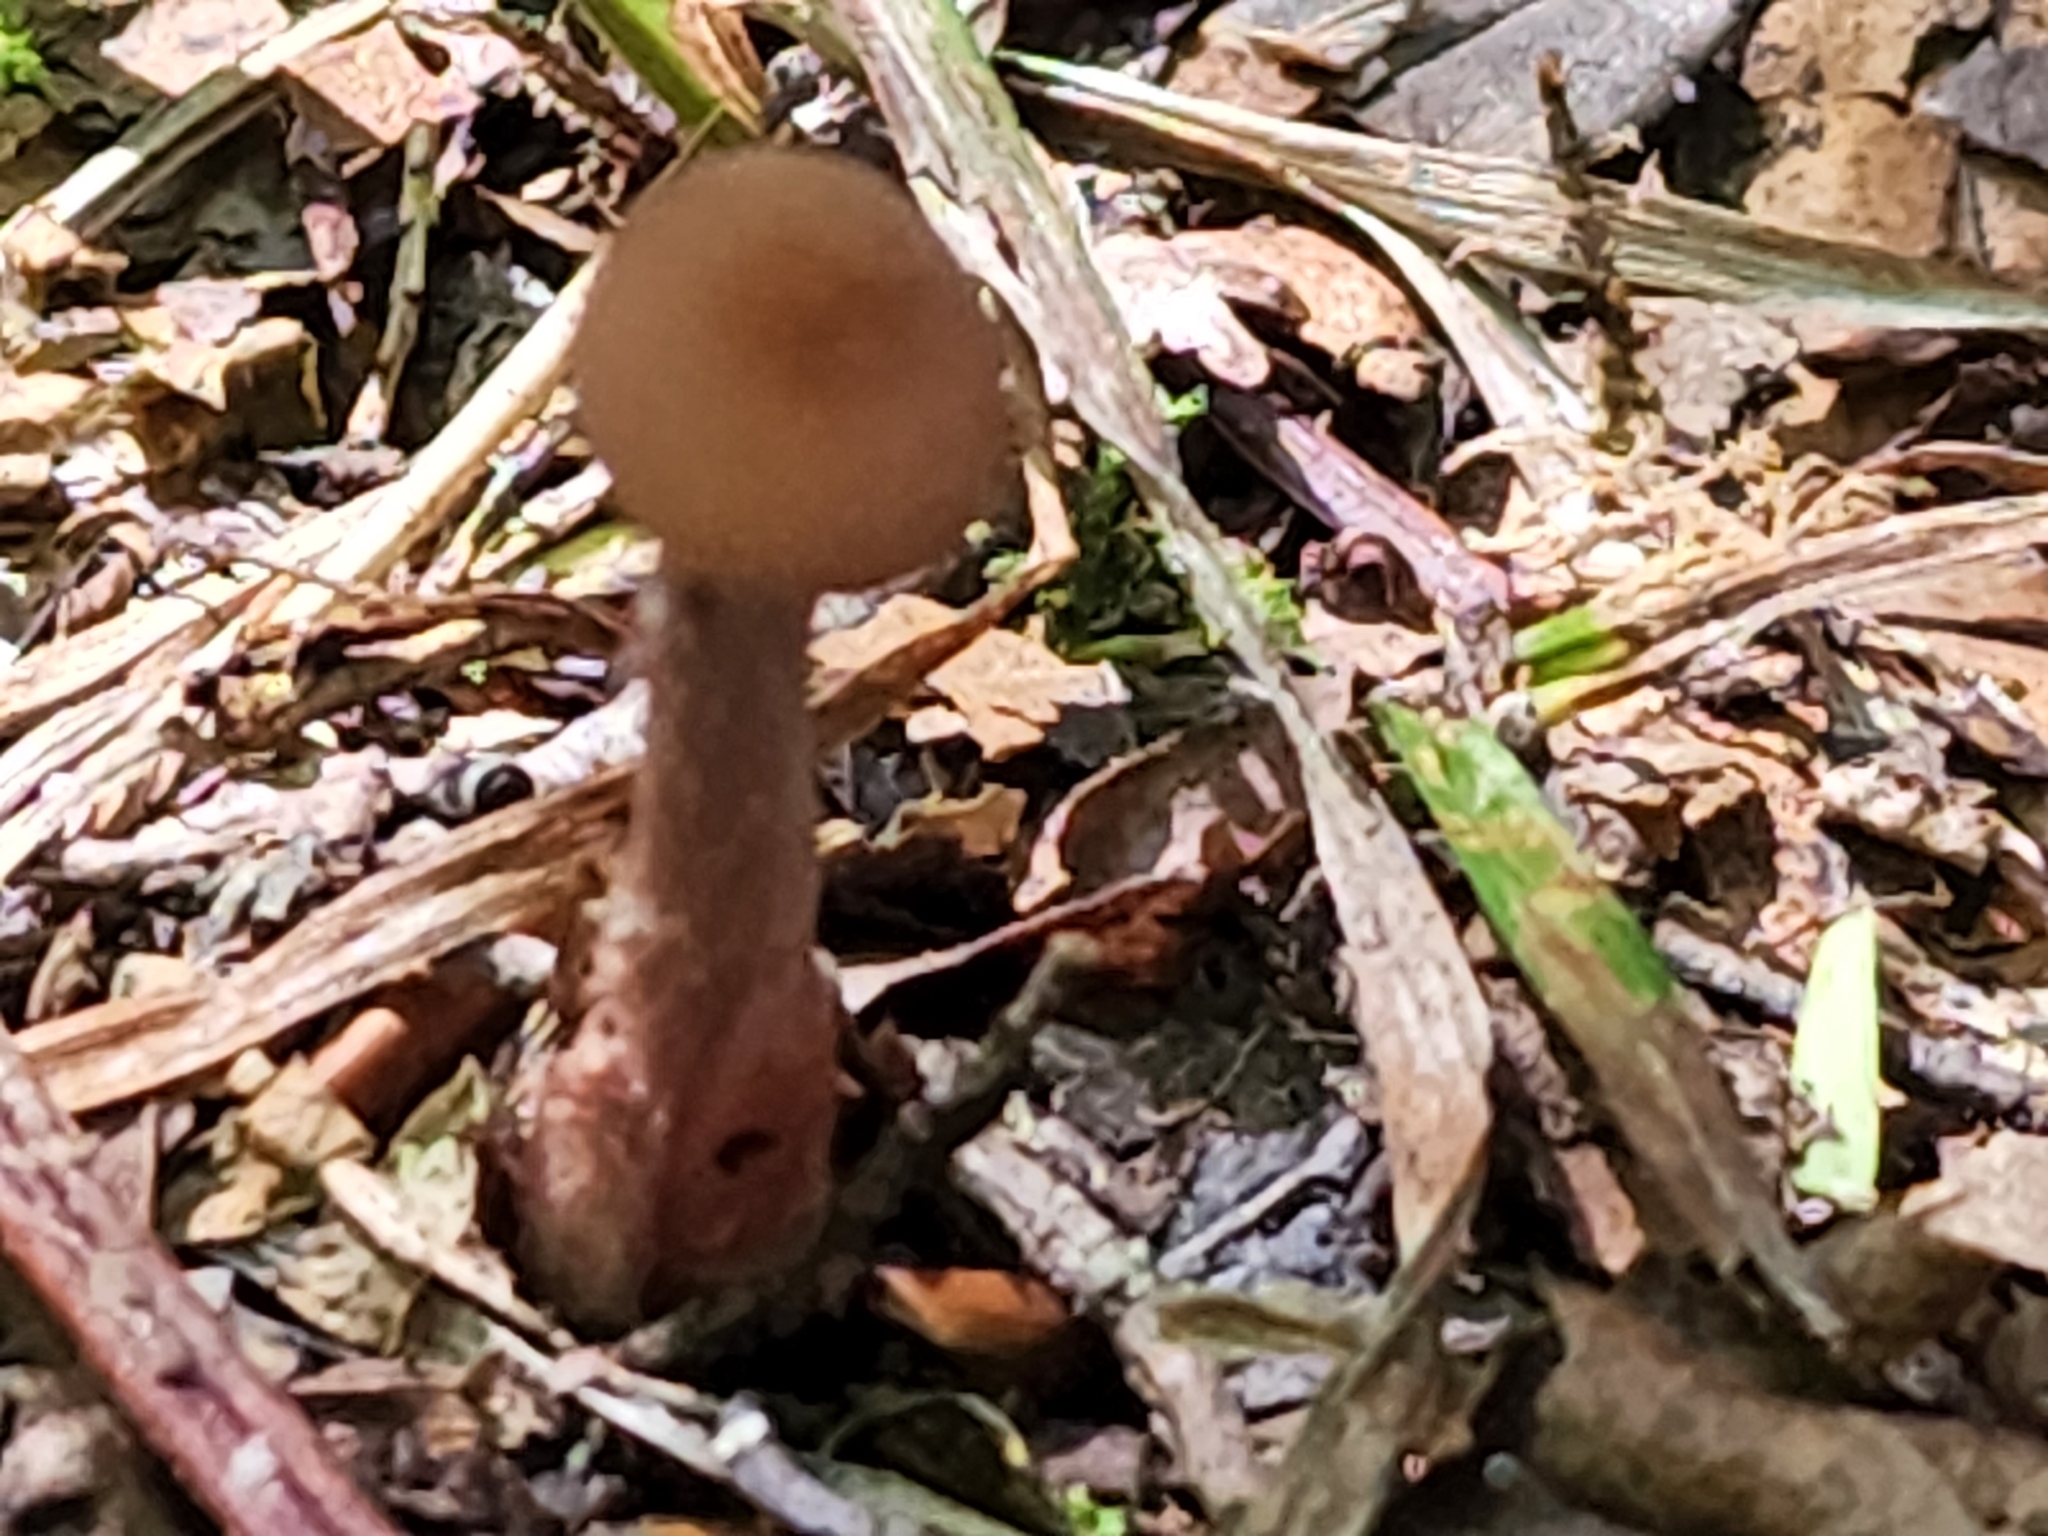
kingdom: Fungi
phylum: Basidiomycota
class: Agaricomycetes
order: Agaricales
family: Hydnangiaceae
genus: Laccaria
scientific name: Laccaria laccata
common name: Deceiver
